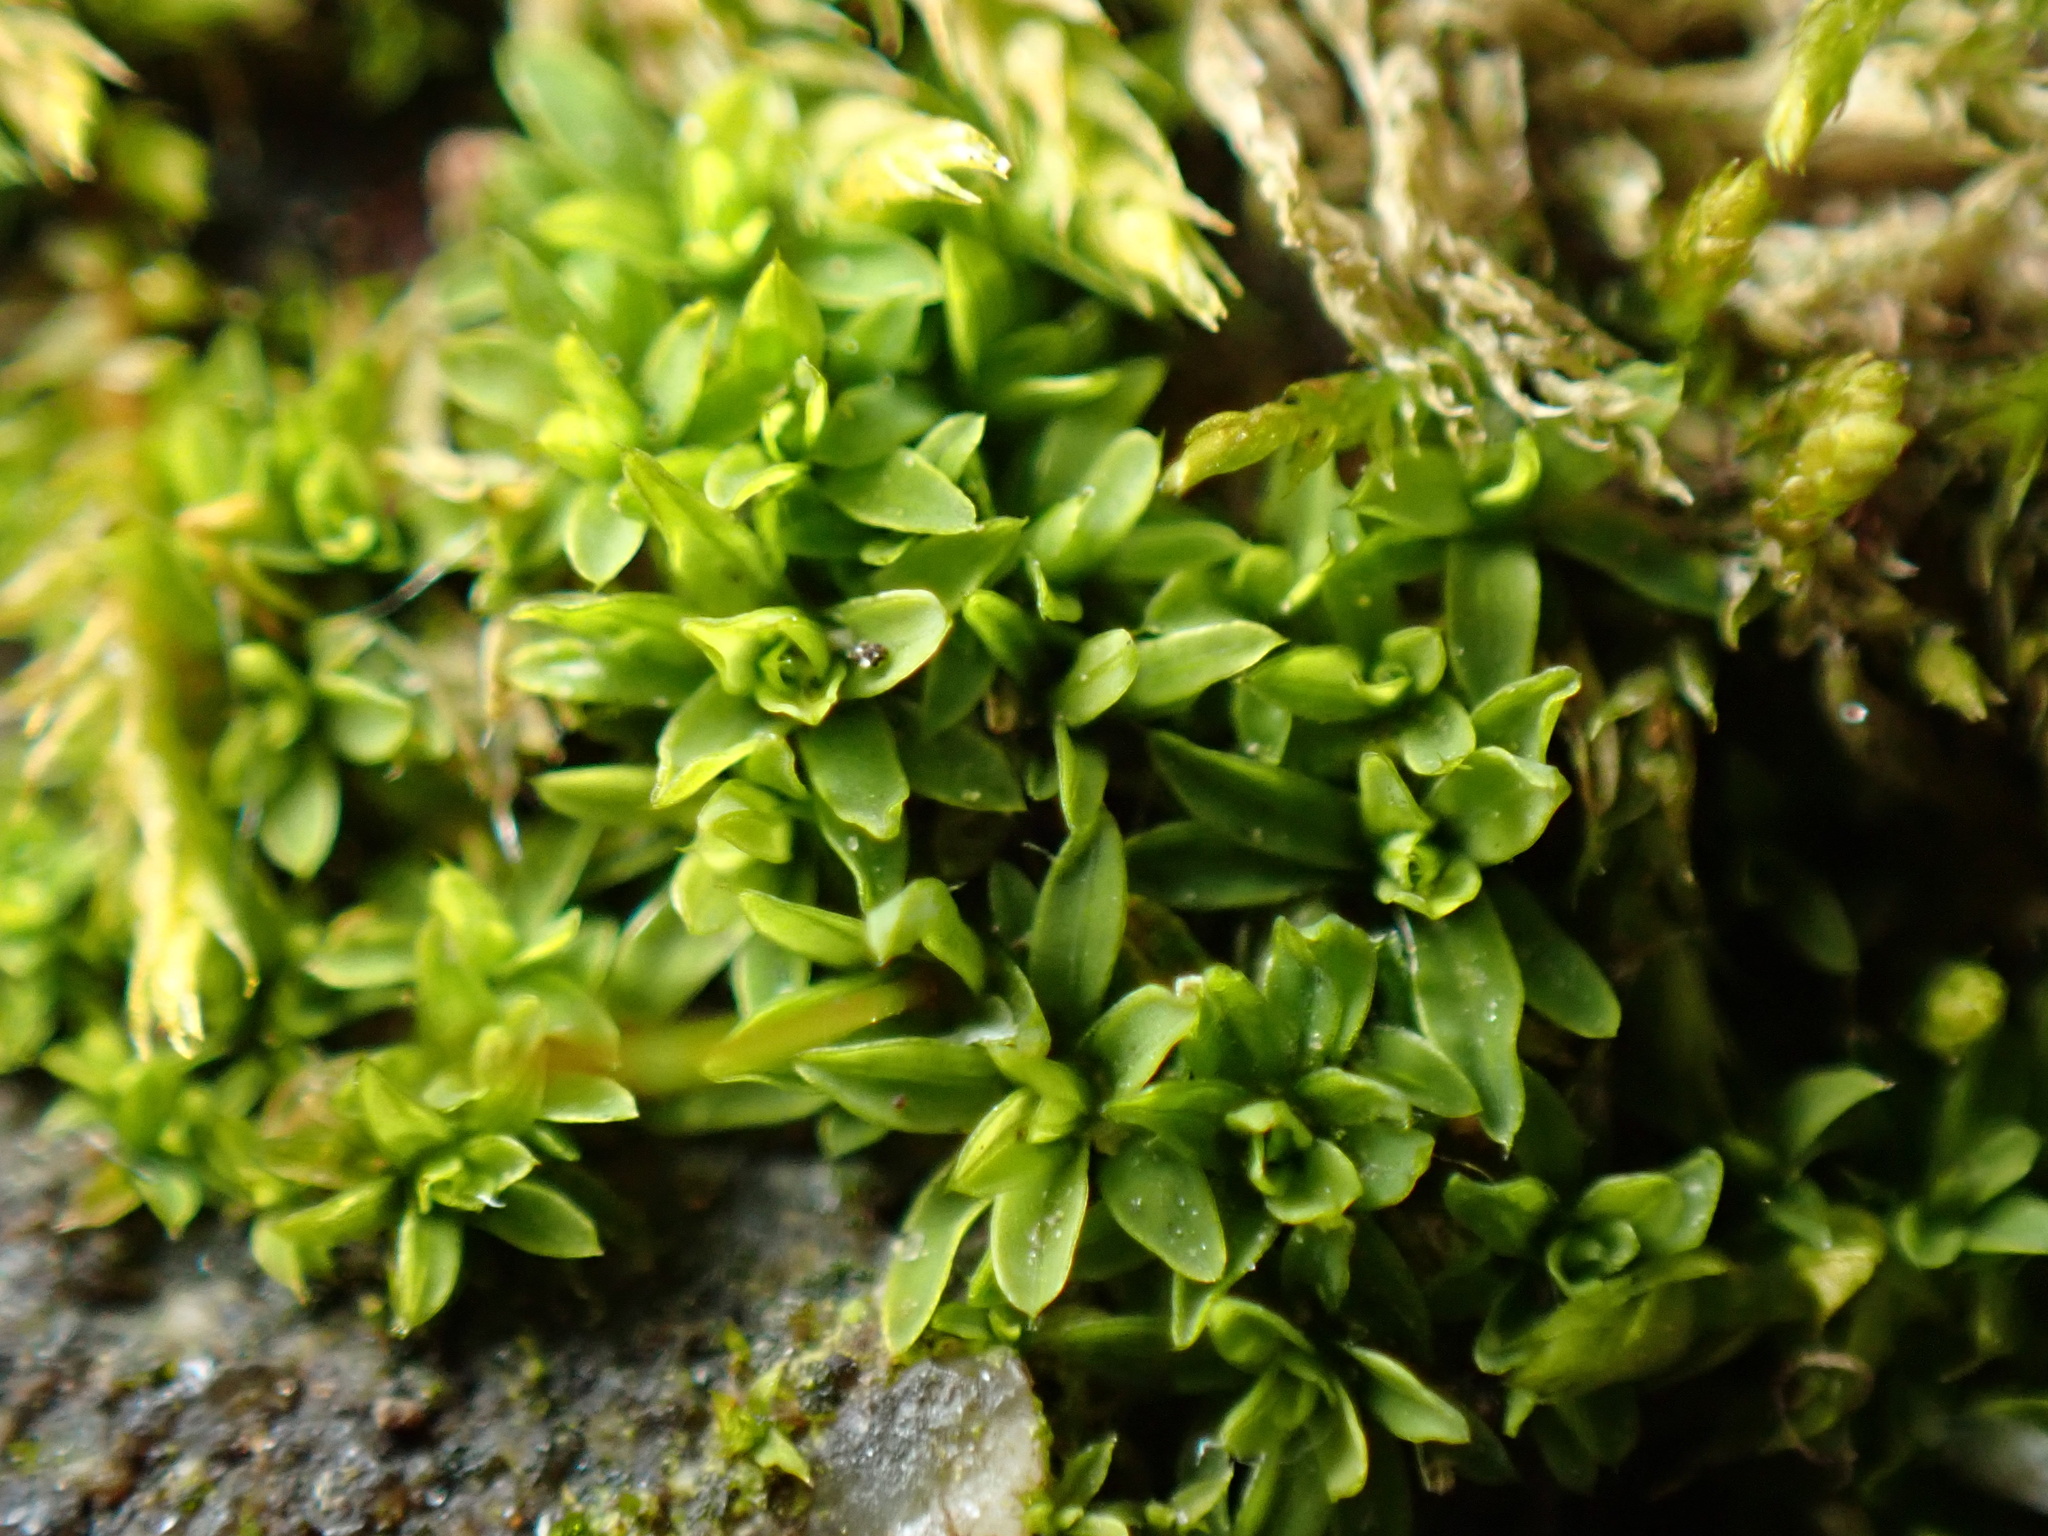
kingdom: Plantae
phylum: Bryophyta
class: Bryopsida
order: Pottiales
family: Pottiaceae
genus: Tortula
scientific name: Tortula muralis
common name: Wall screw-moss
